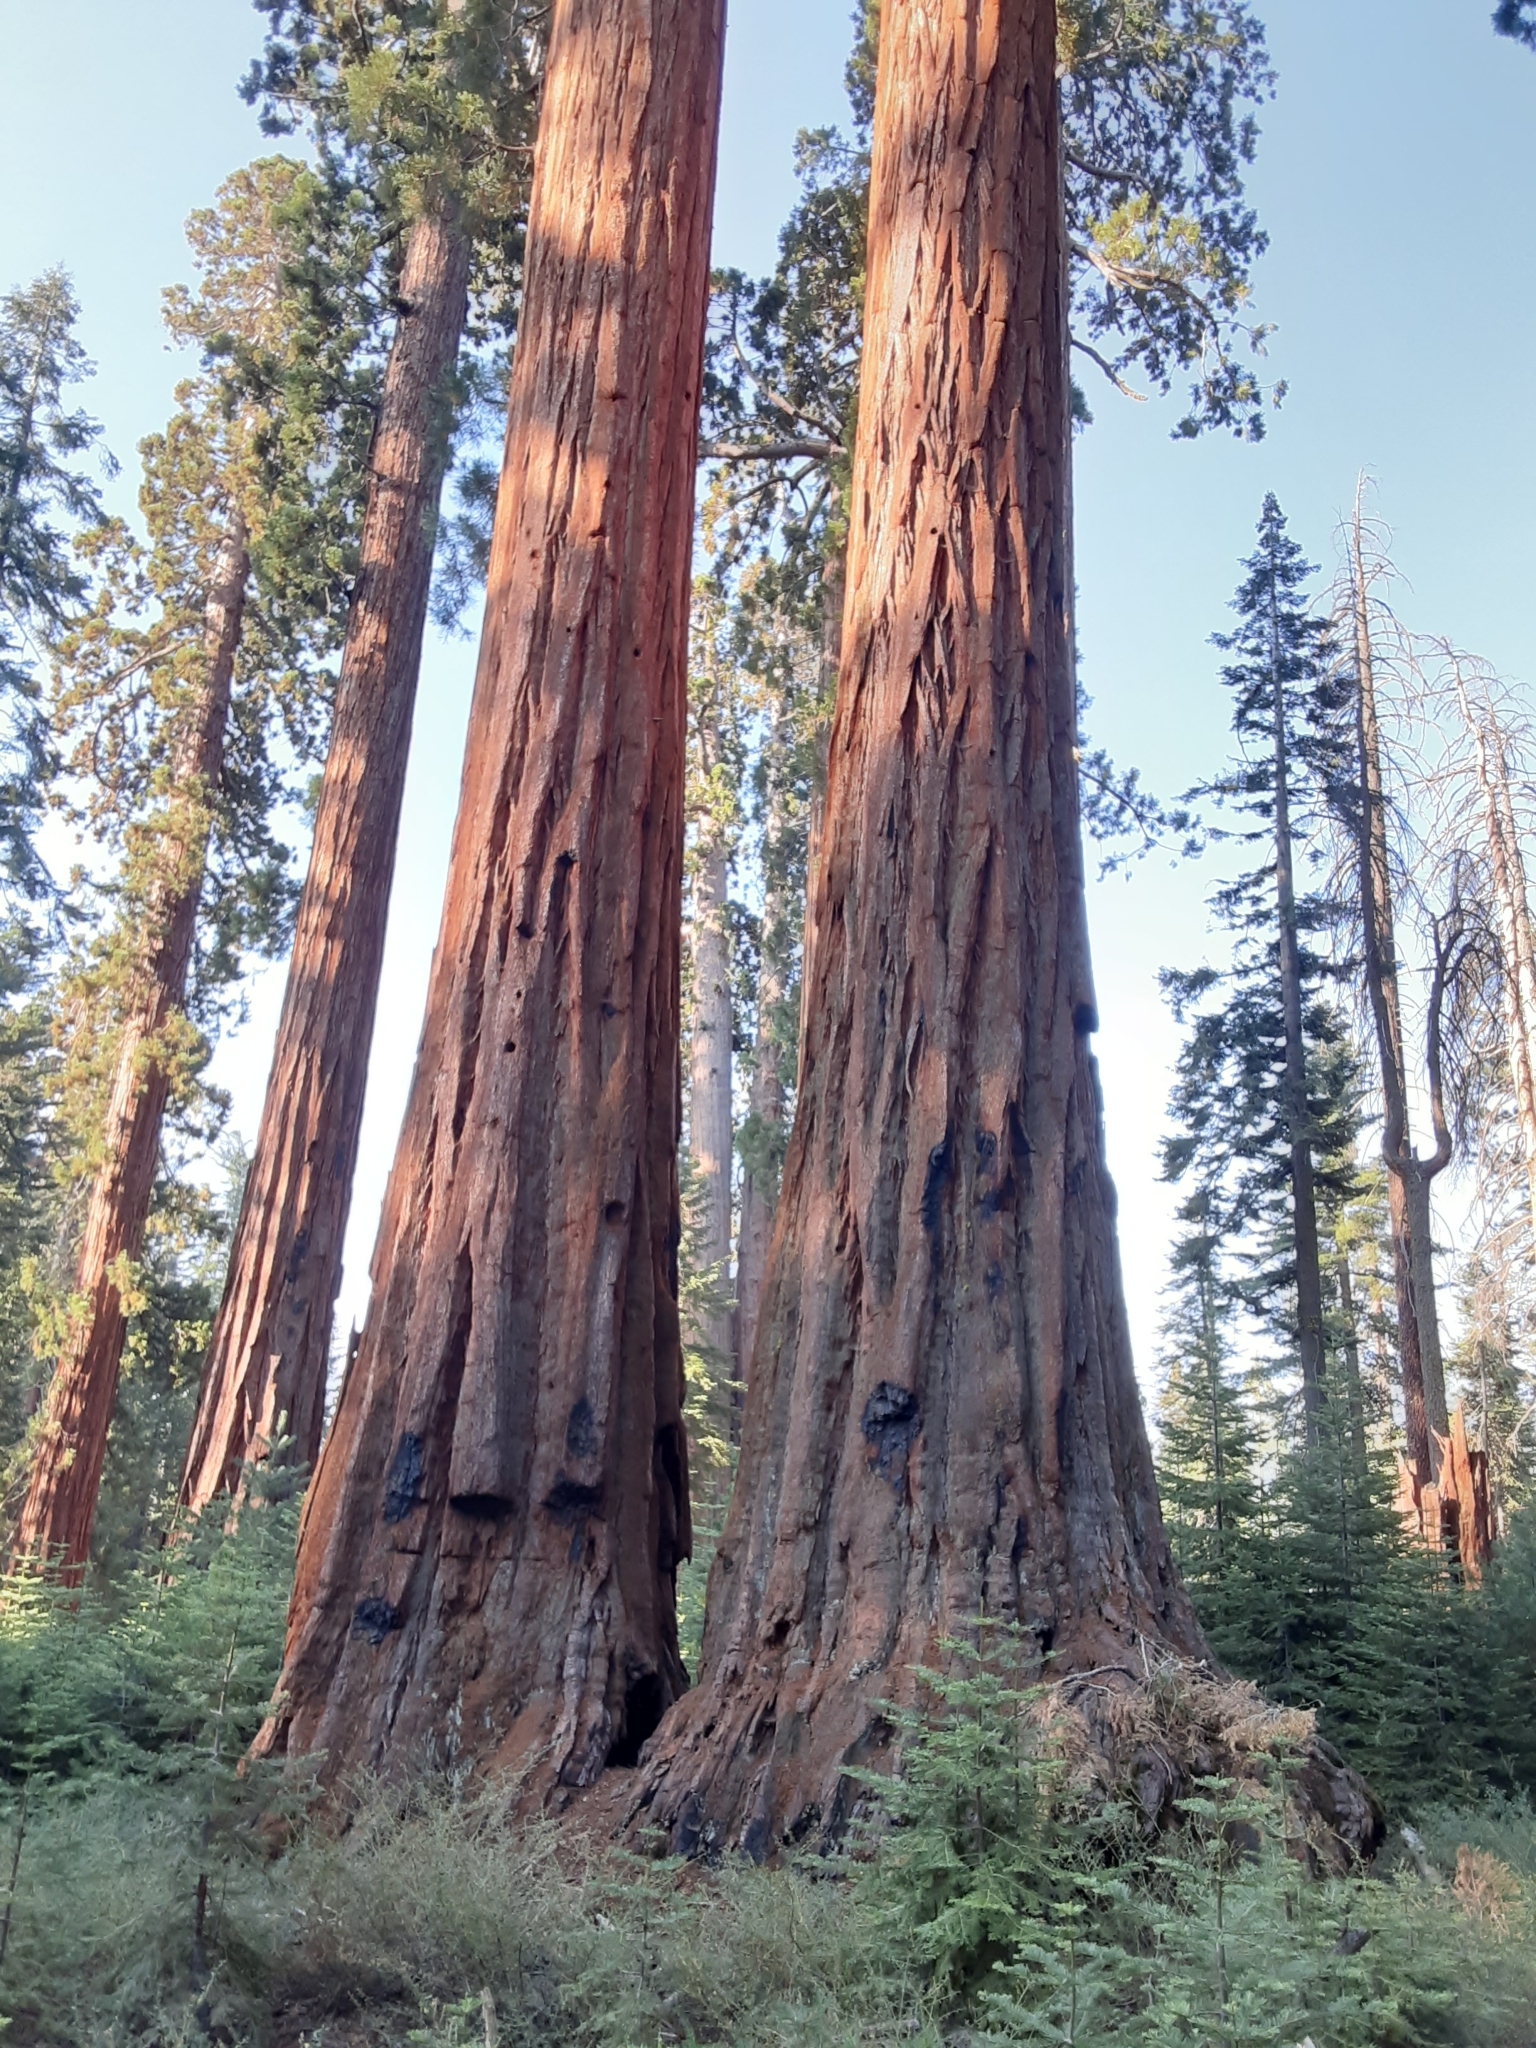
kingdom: Plantae
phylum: Tracheophyta
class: Pinopsida
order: Pinales
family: Cupressaceae
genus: Sequoiadendron
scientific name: Sequoiadendron giganteum
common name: Wellingtonia
